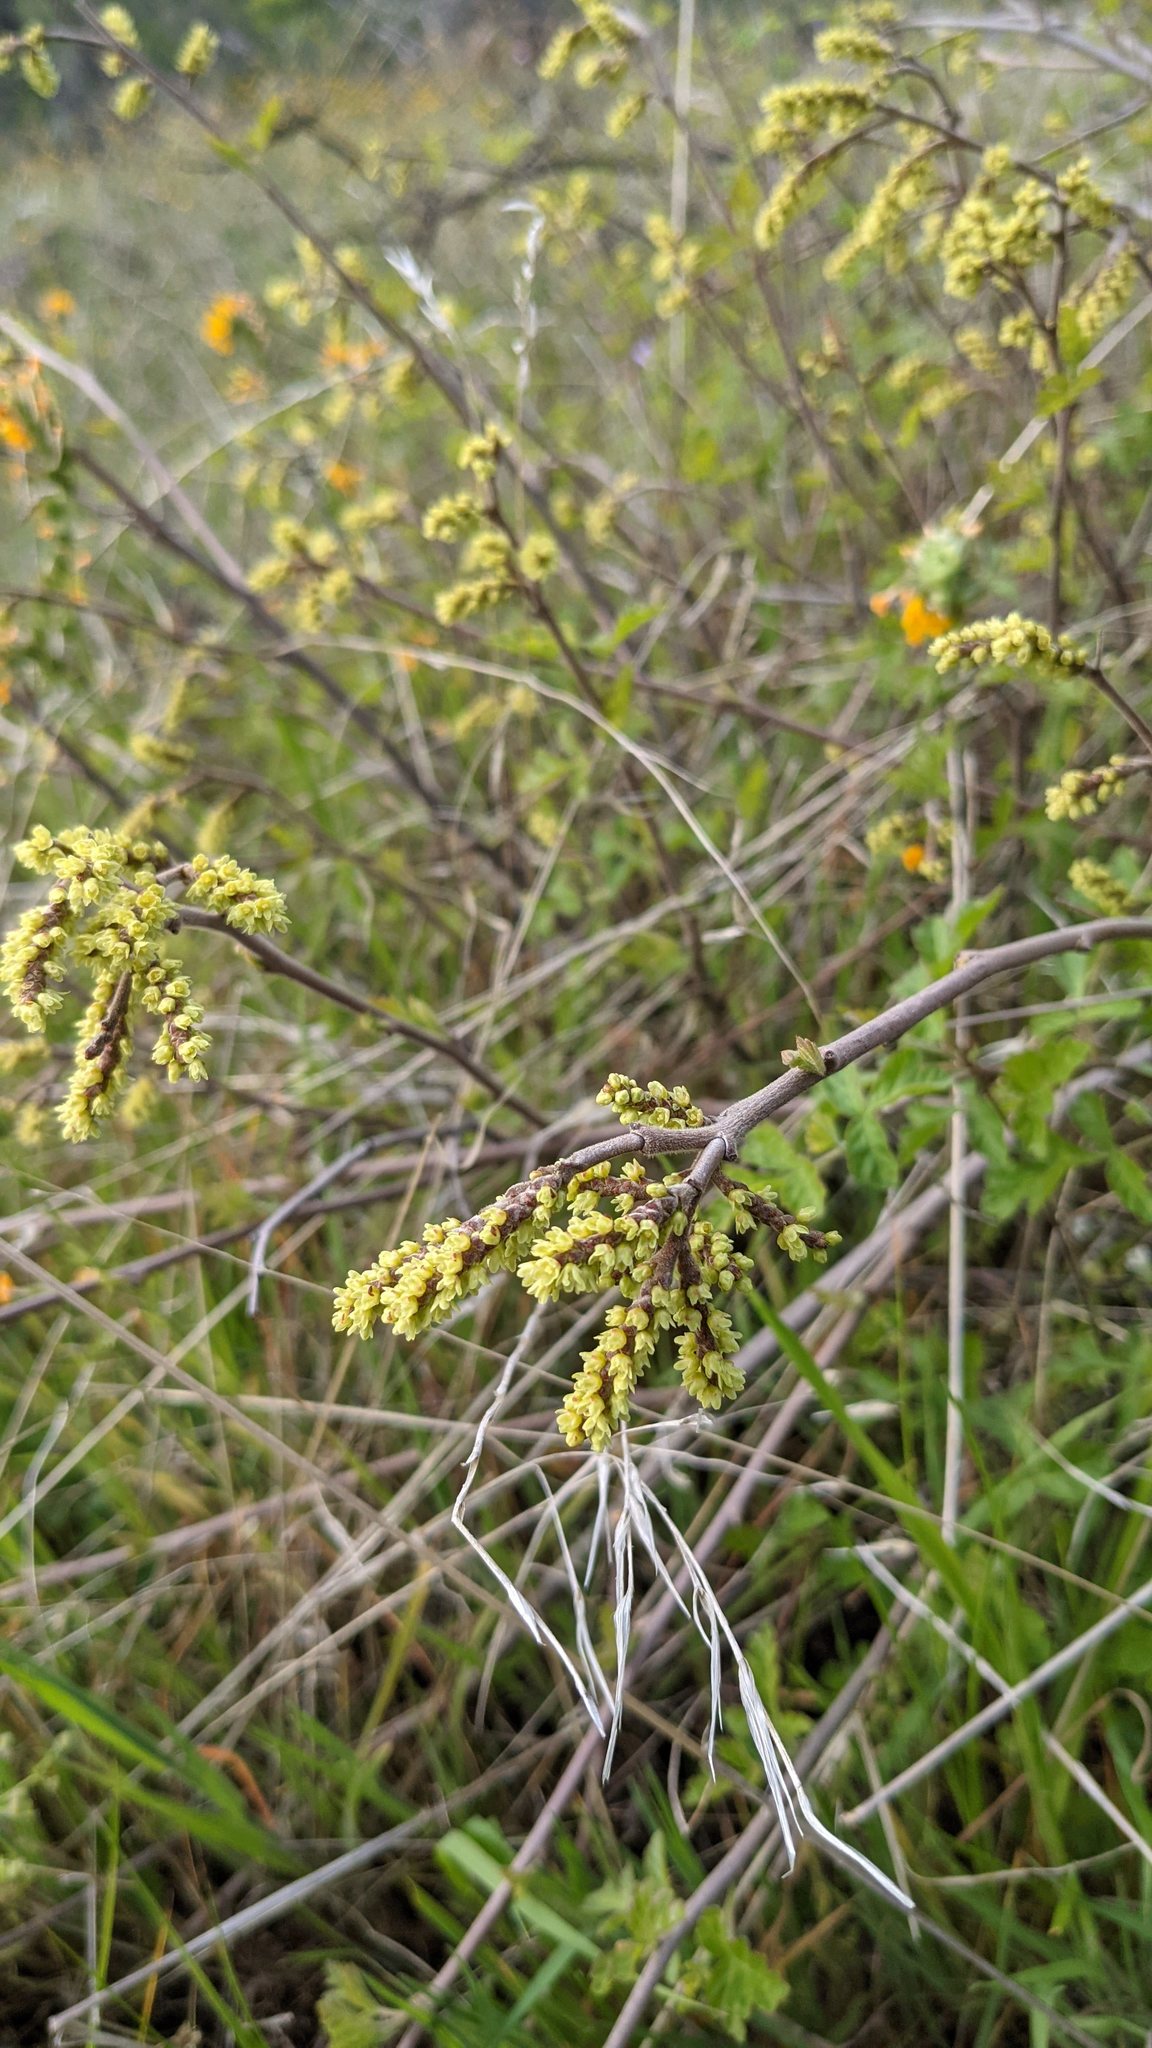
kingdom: Plantae
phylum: Tracheophyta
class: Magnoliopsida
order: Sapindales
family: Anacardiaceae
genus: Rhus
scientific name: Rhus aromatica
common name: Aromatic sumac
